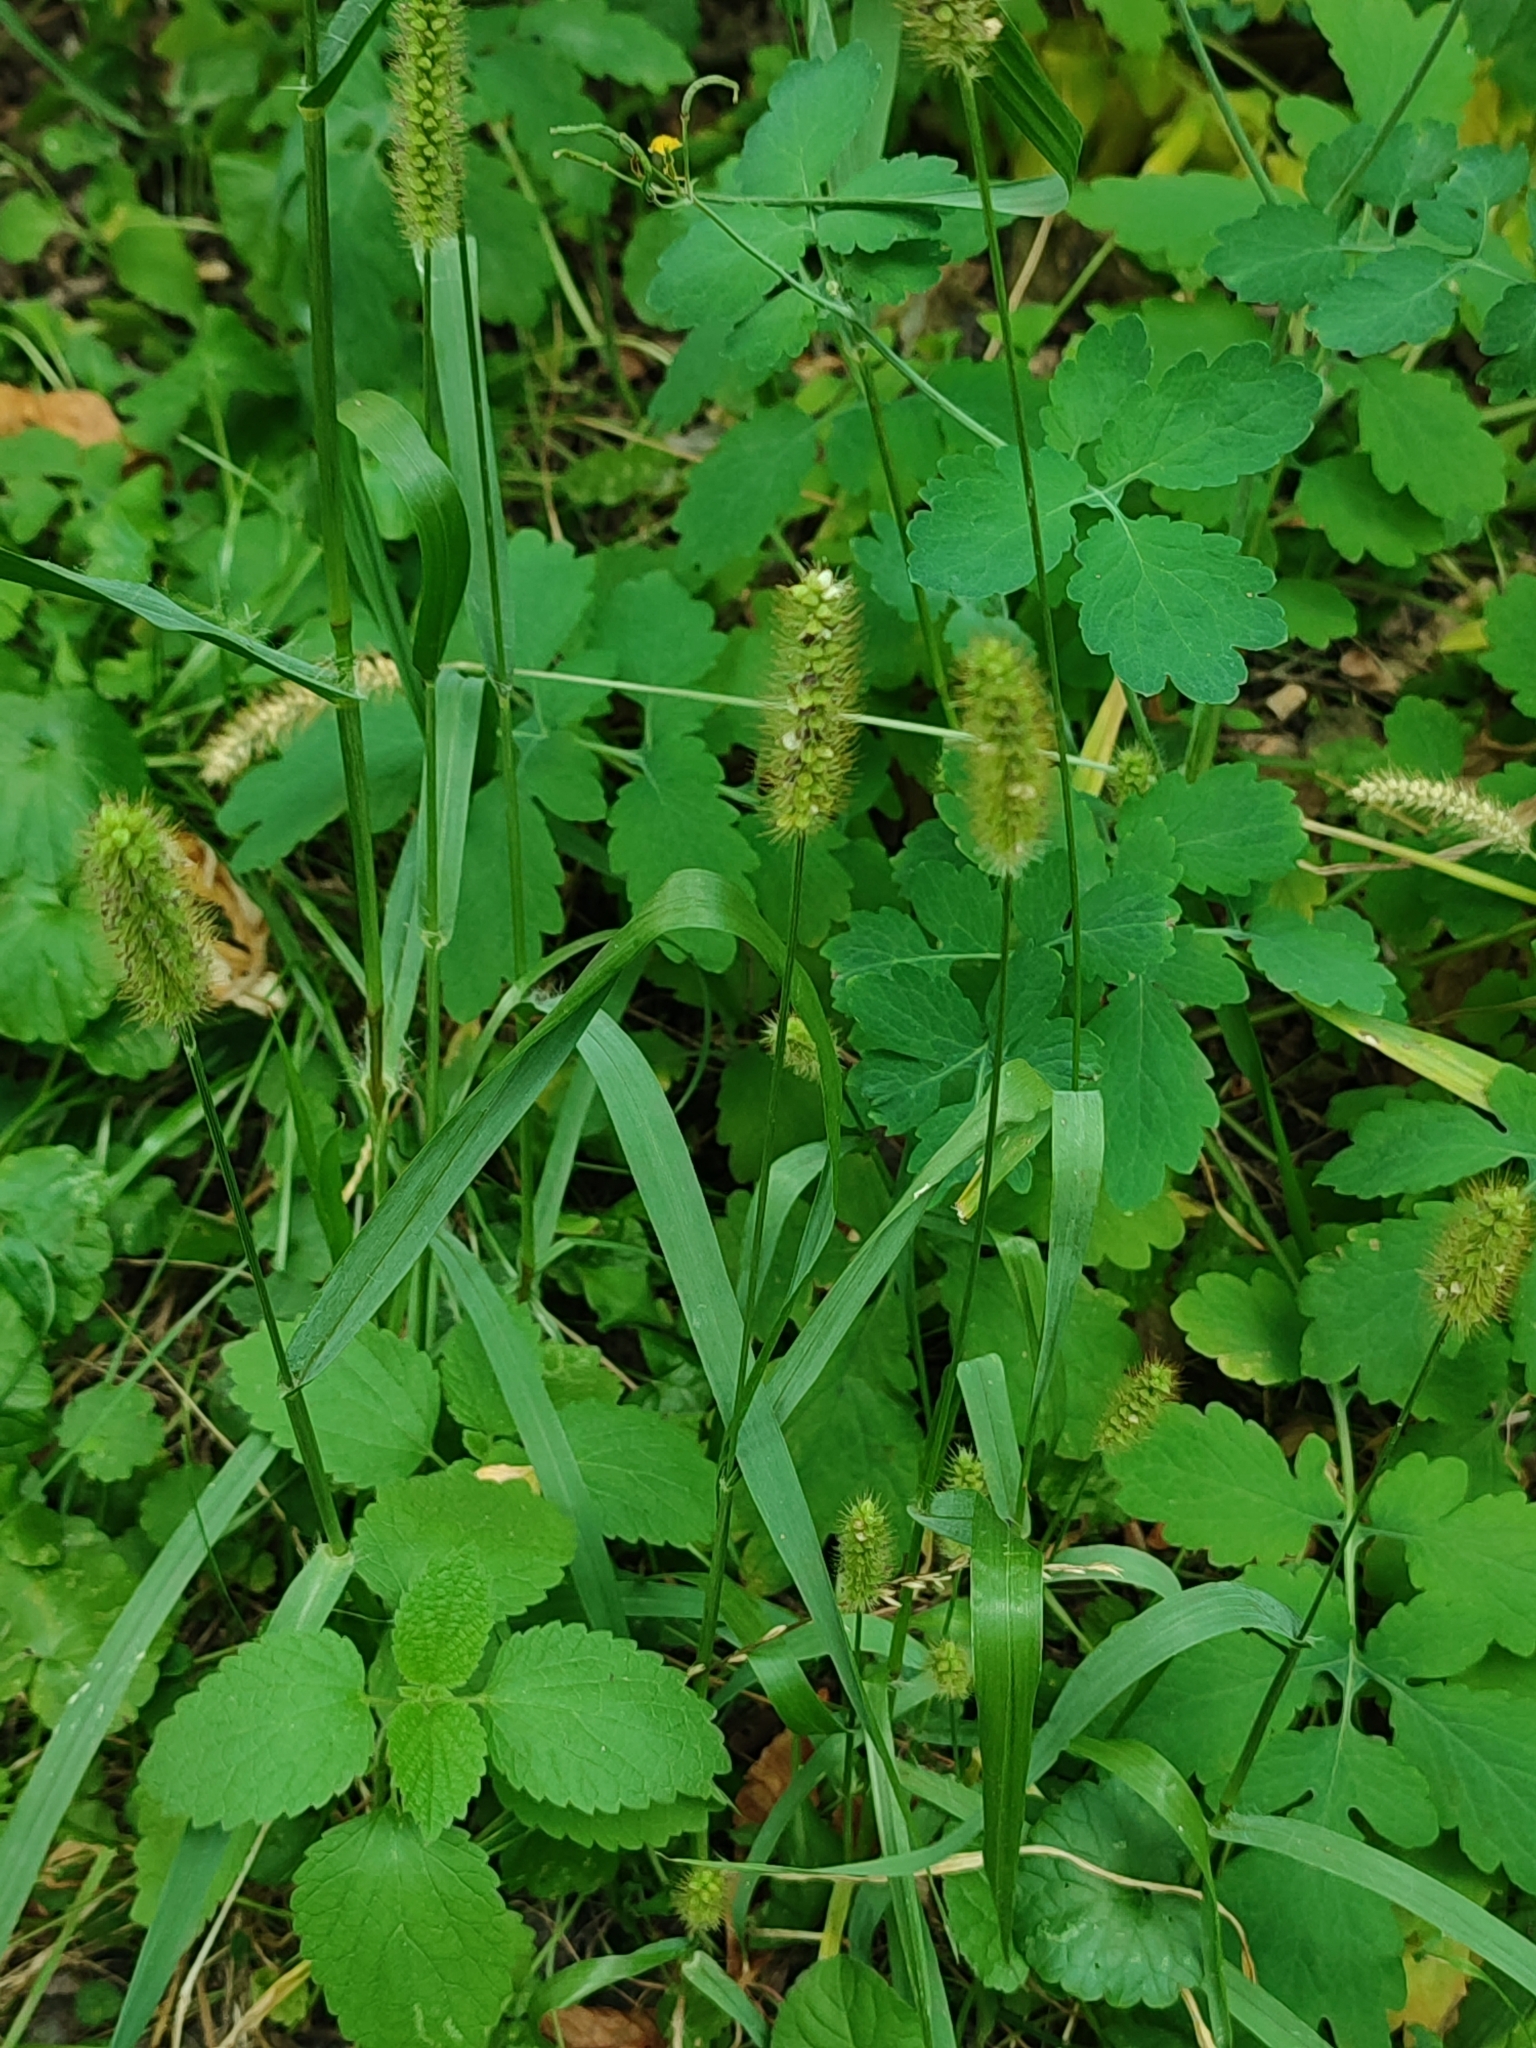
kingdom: Plantae
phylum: Tracheophyta
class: Liliopsida
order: Poales
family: Poaceae
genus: Setaria
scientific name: Setaria pumila
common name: Yellow bristle-grass
